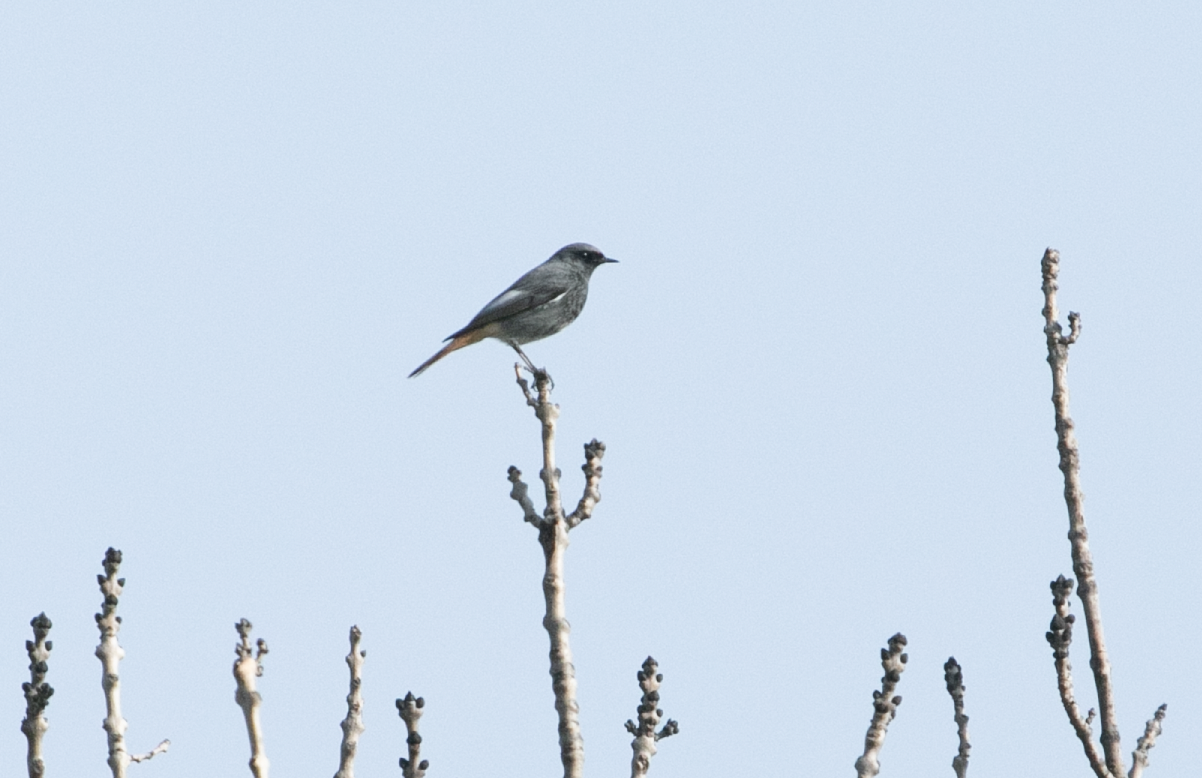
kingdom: Animalia
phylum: Chordata
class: Aves
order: Passeriformes
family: Muscicapidae
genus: Phoenicurus
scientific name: Phoenicurus ochruros
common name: Black redstart
